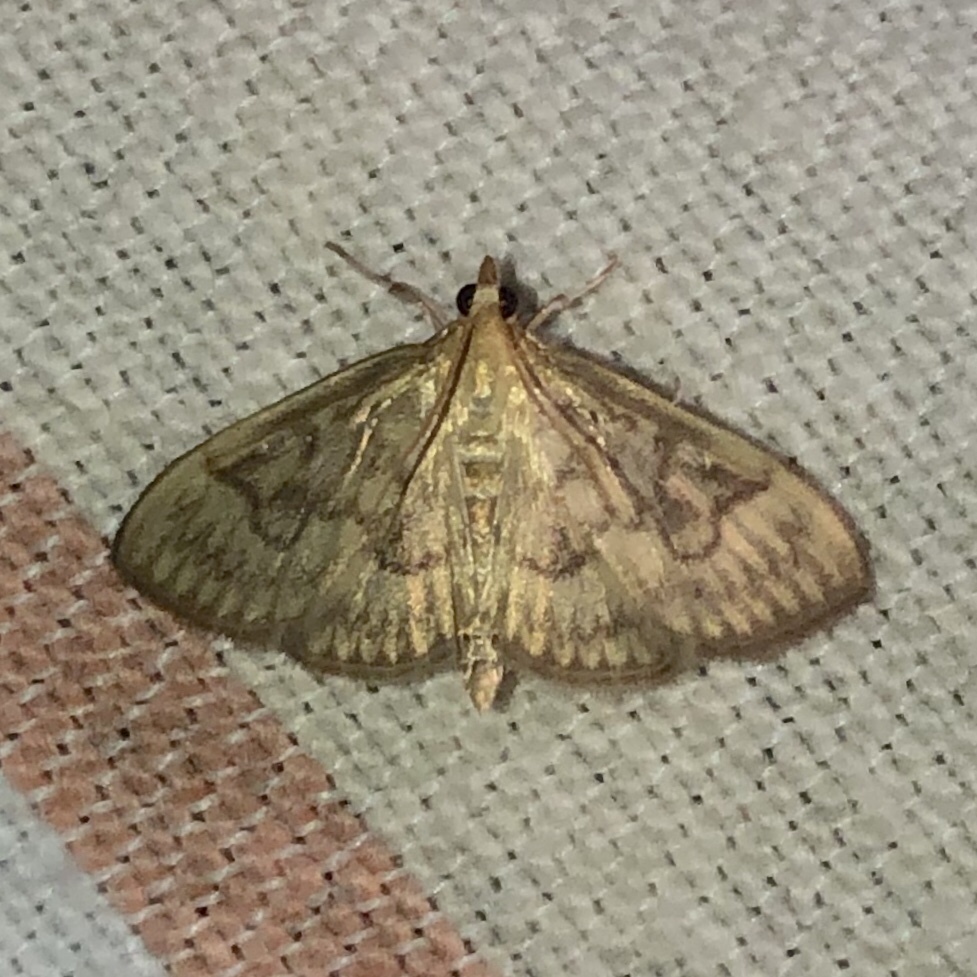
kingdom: Animalia
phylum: Arthropoda
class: Insecta
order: Lepidoptera
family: Crambidae
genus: Crocidophora
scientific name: Crocidophora serratissimalis
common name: Saw-toothed crocidophora moth
